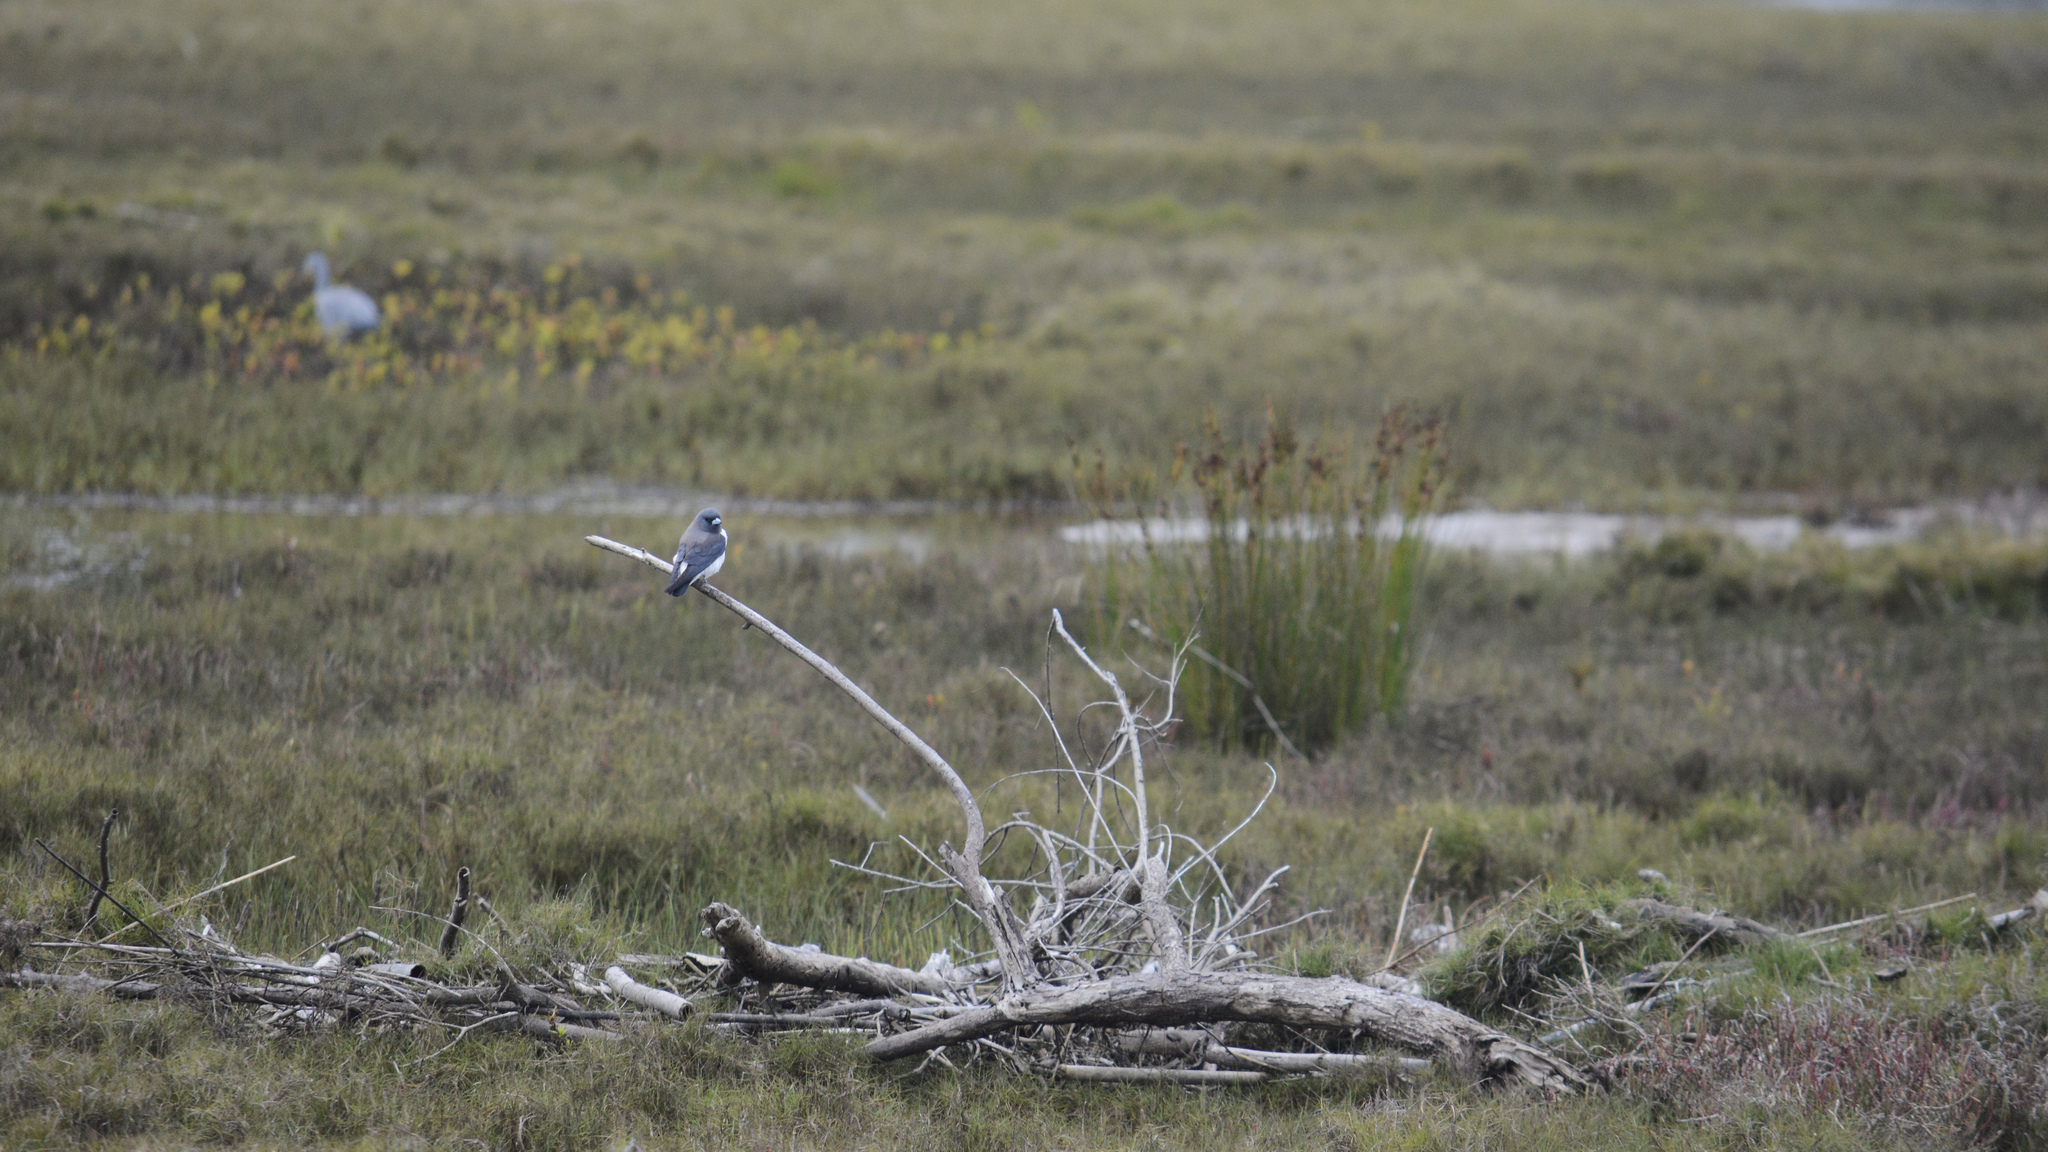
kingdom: Animalia
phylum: Chordata
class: Aves
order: Passeriformes
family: Artamidae
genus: Artamus
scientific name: Artamus leucoryn
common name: White-breasted woodswallow
